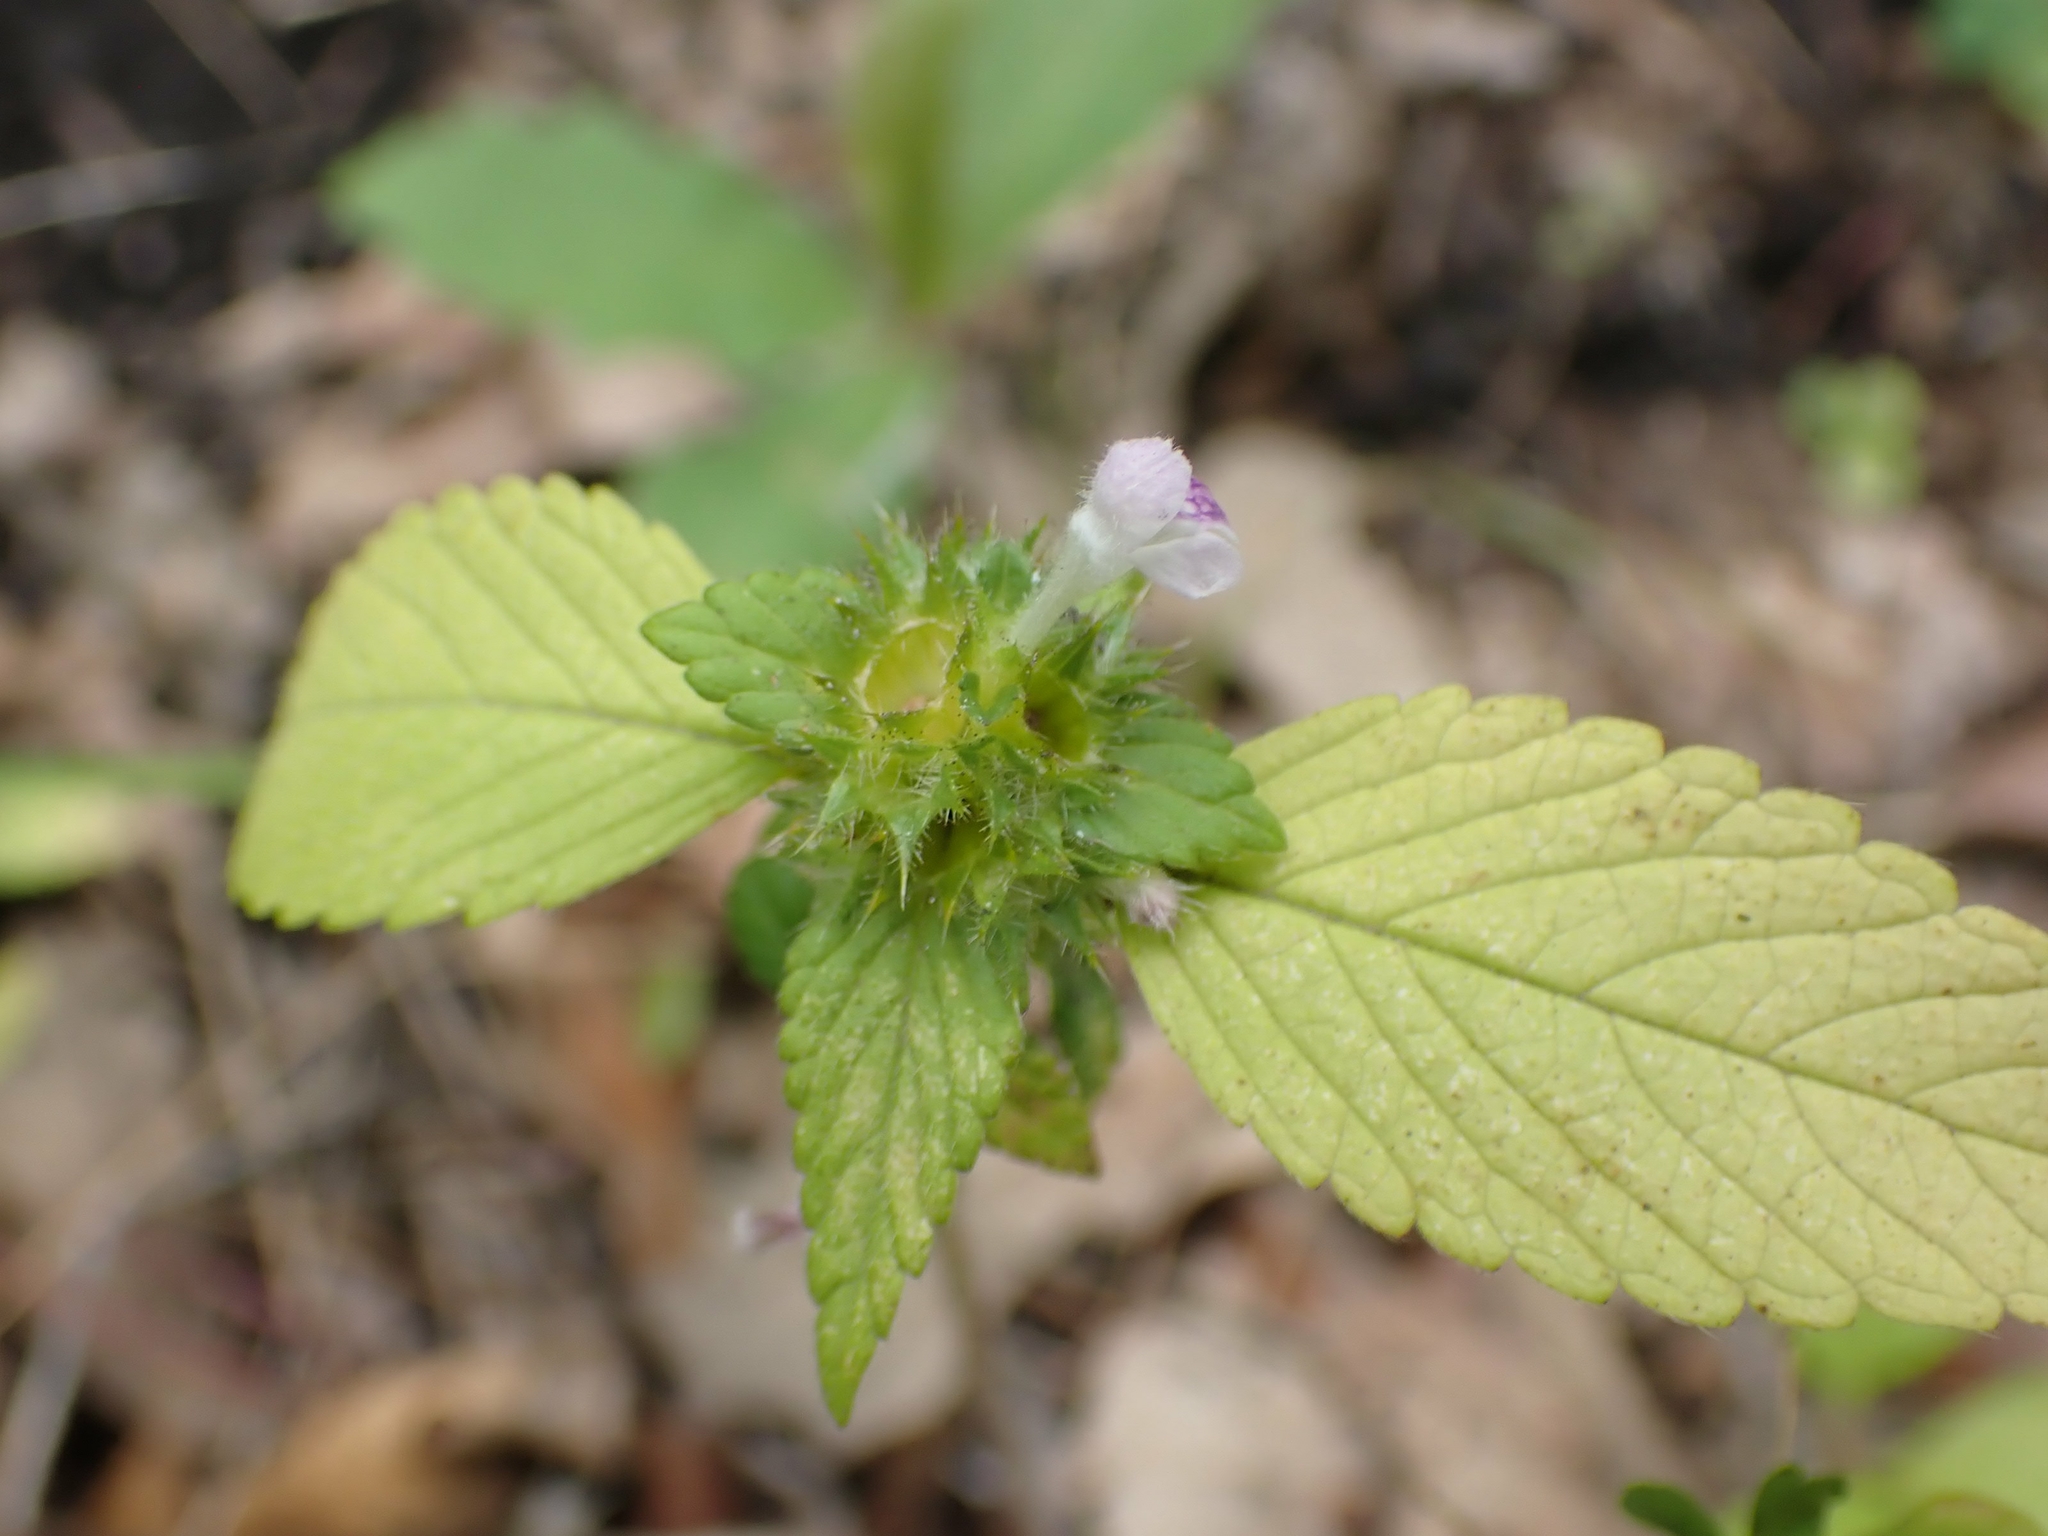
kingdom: Plantae
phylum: Tracheophyta
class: Magnoliopsida
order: Lamiales
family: Lamiaceae
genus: Galeopsis
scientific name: Galeopsis bifida
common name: Bifid hemp-nettle
